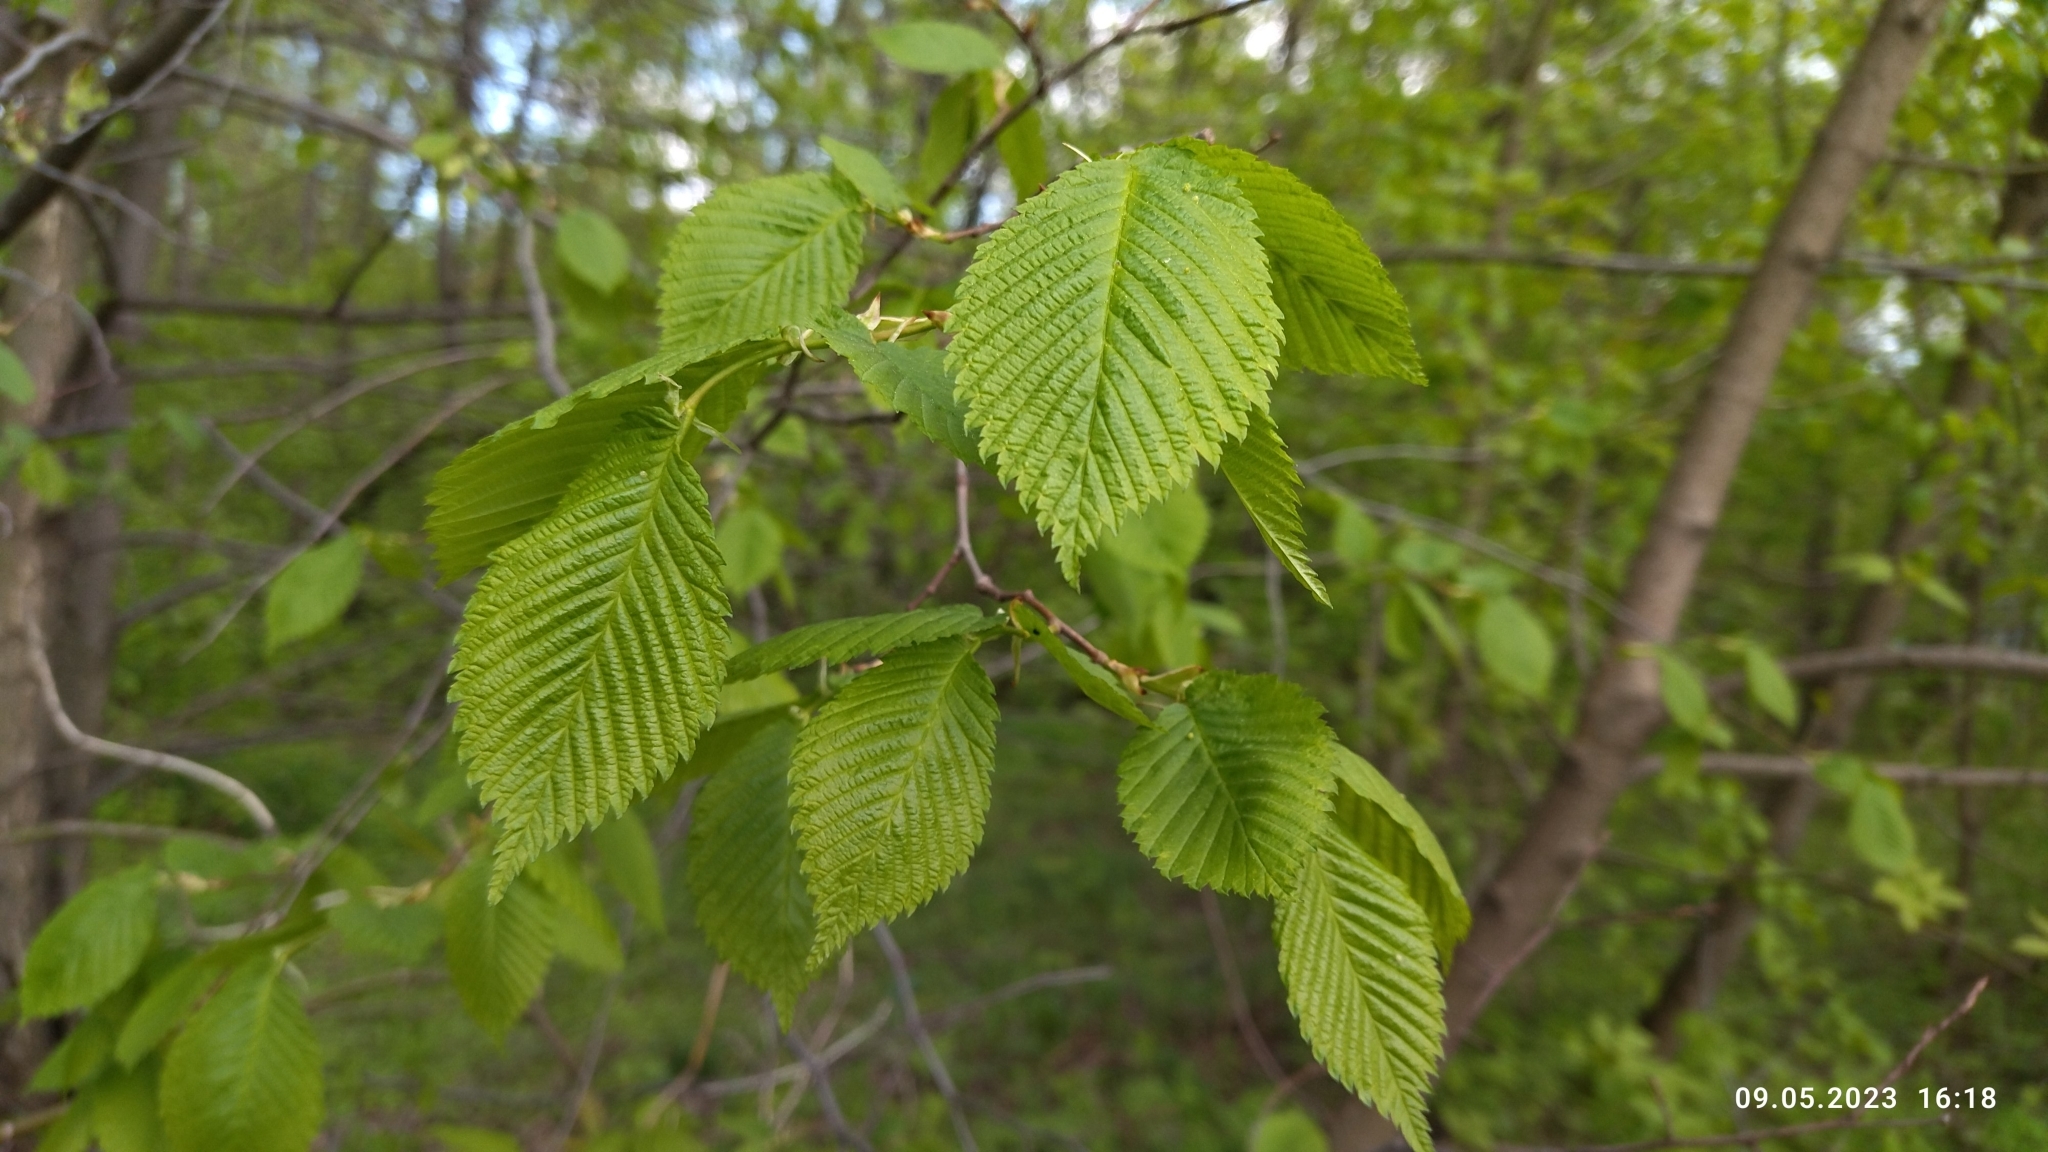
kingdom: Plantae
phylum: Tracheophyta
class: Magnoliopsida
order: Rosales
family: Ulmaceae
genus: Ulmus
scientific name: Ulmus laevis
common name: European white-elm
